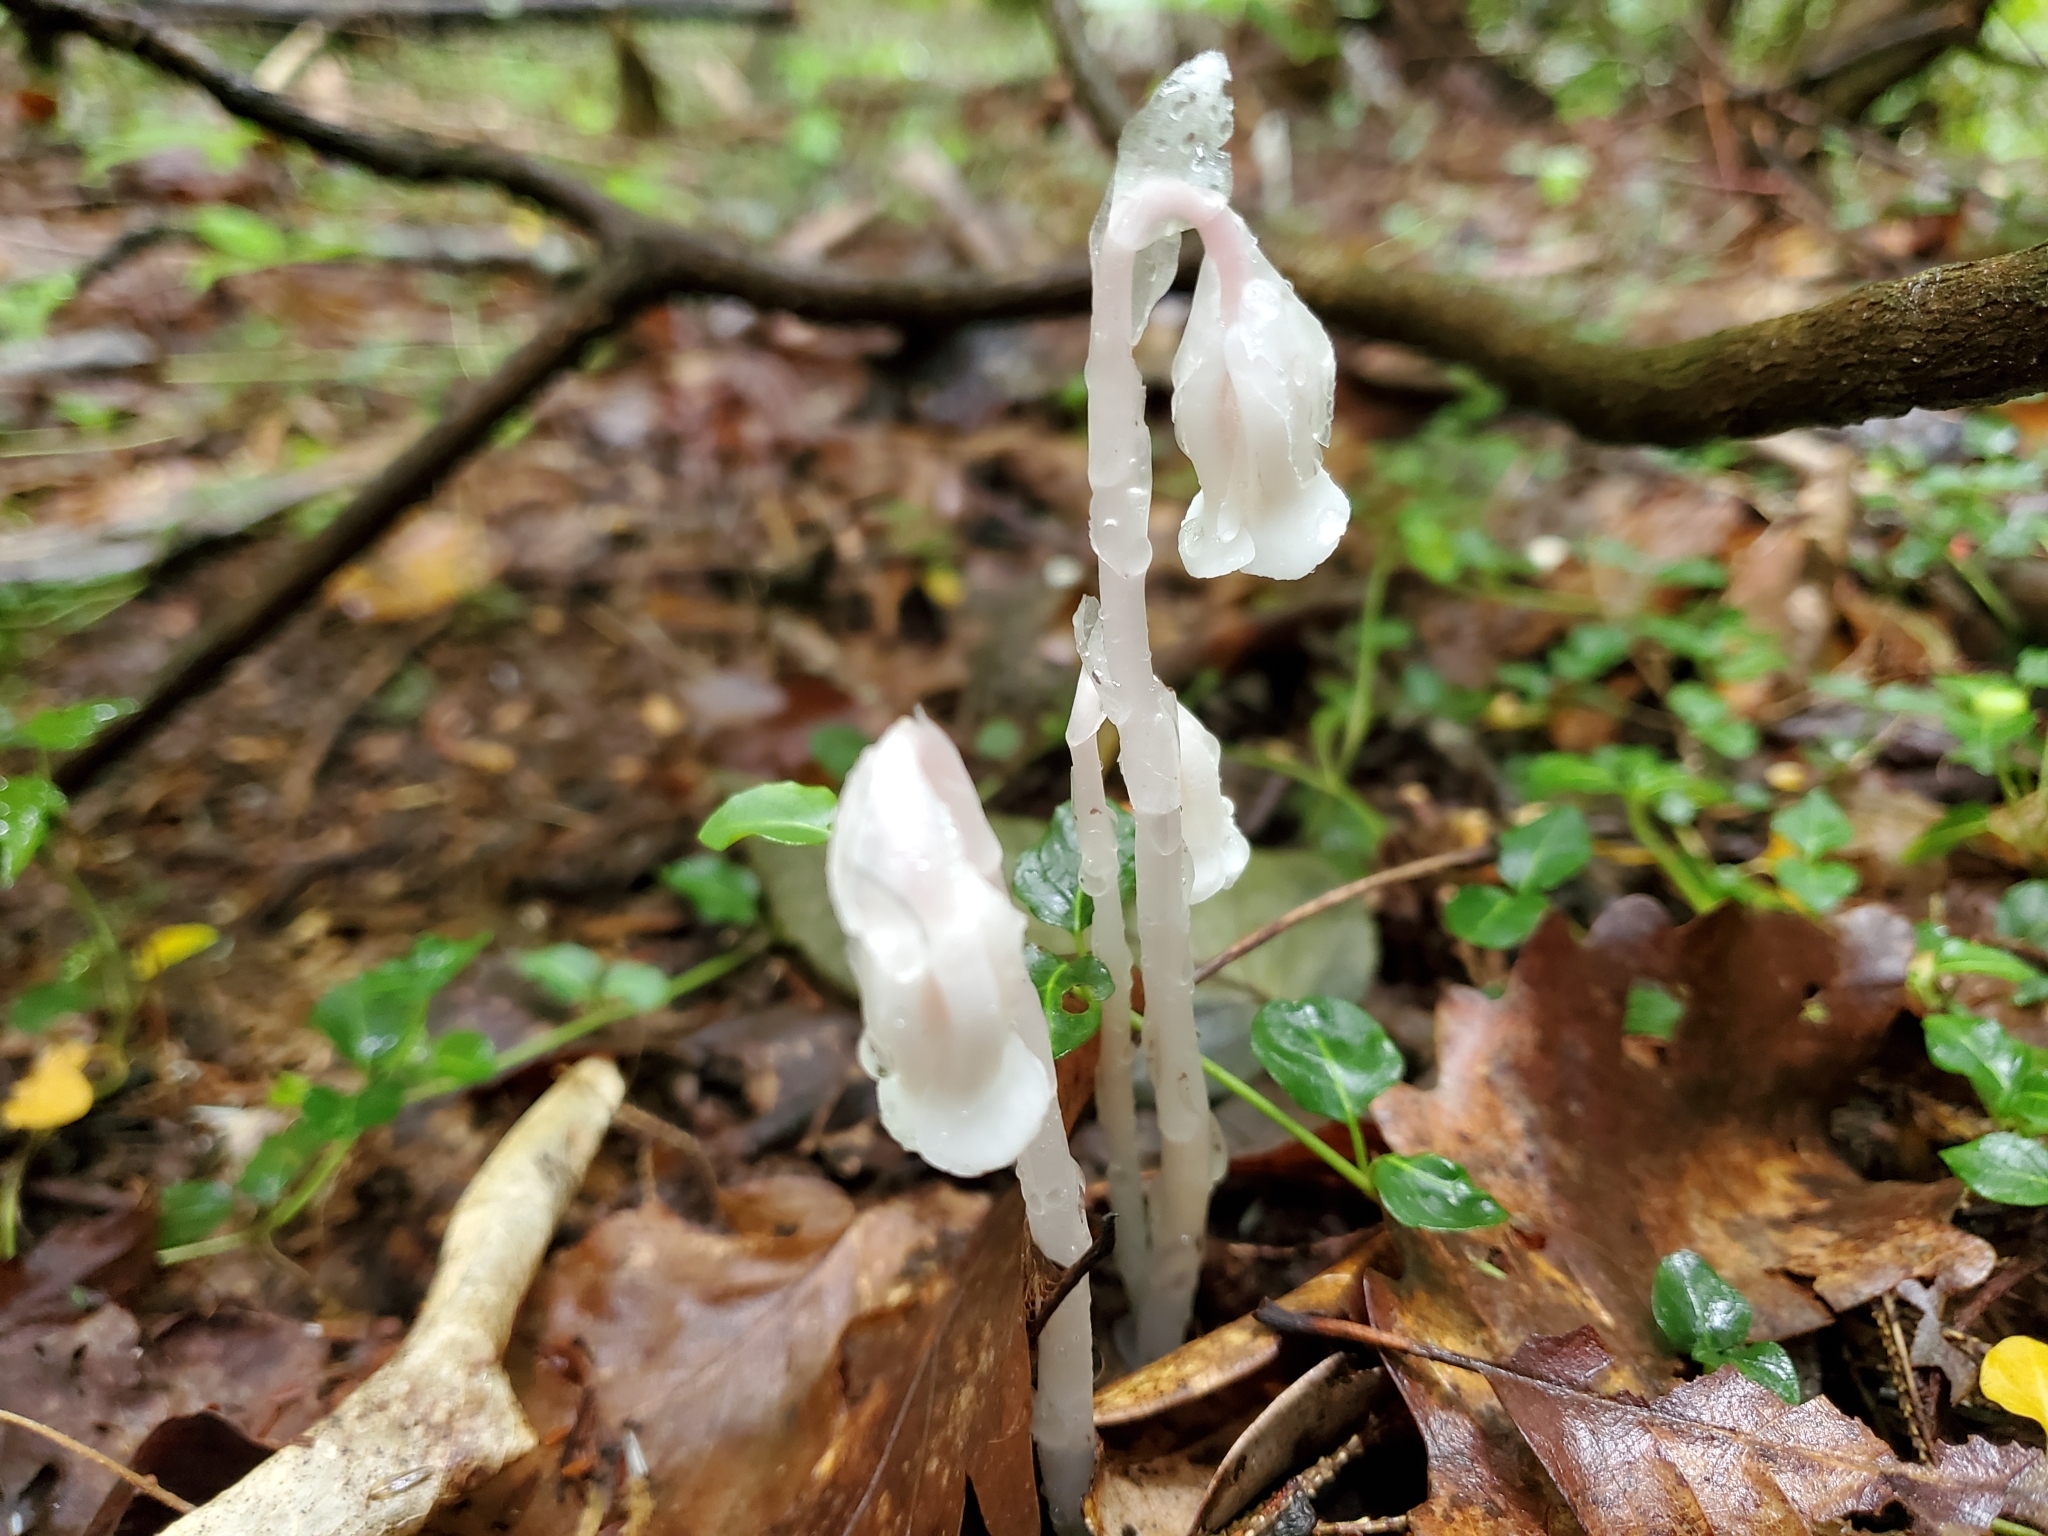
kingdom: Plantae
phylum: Tracheophyta
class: Magnoliopsida
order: Ericales
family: Ericaceae
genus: Monotropa
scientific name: Monotropa uniflora
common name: Convulsion root
